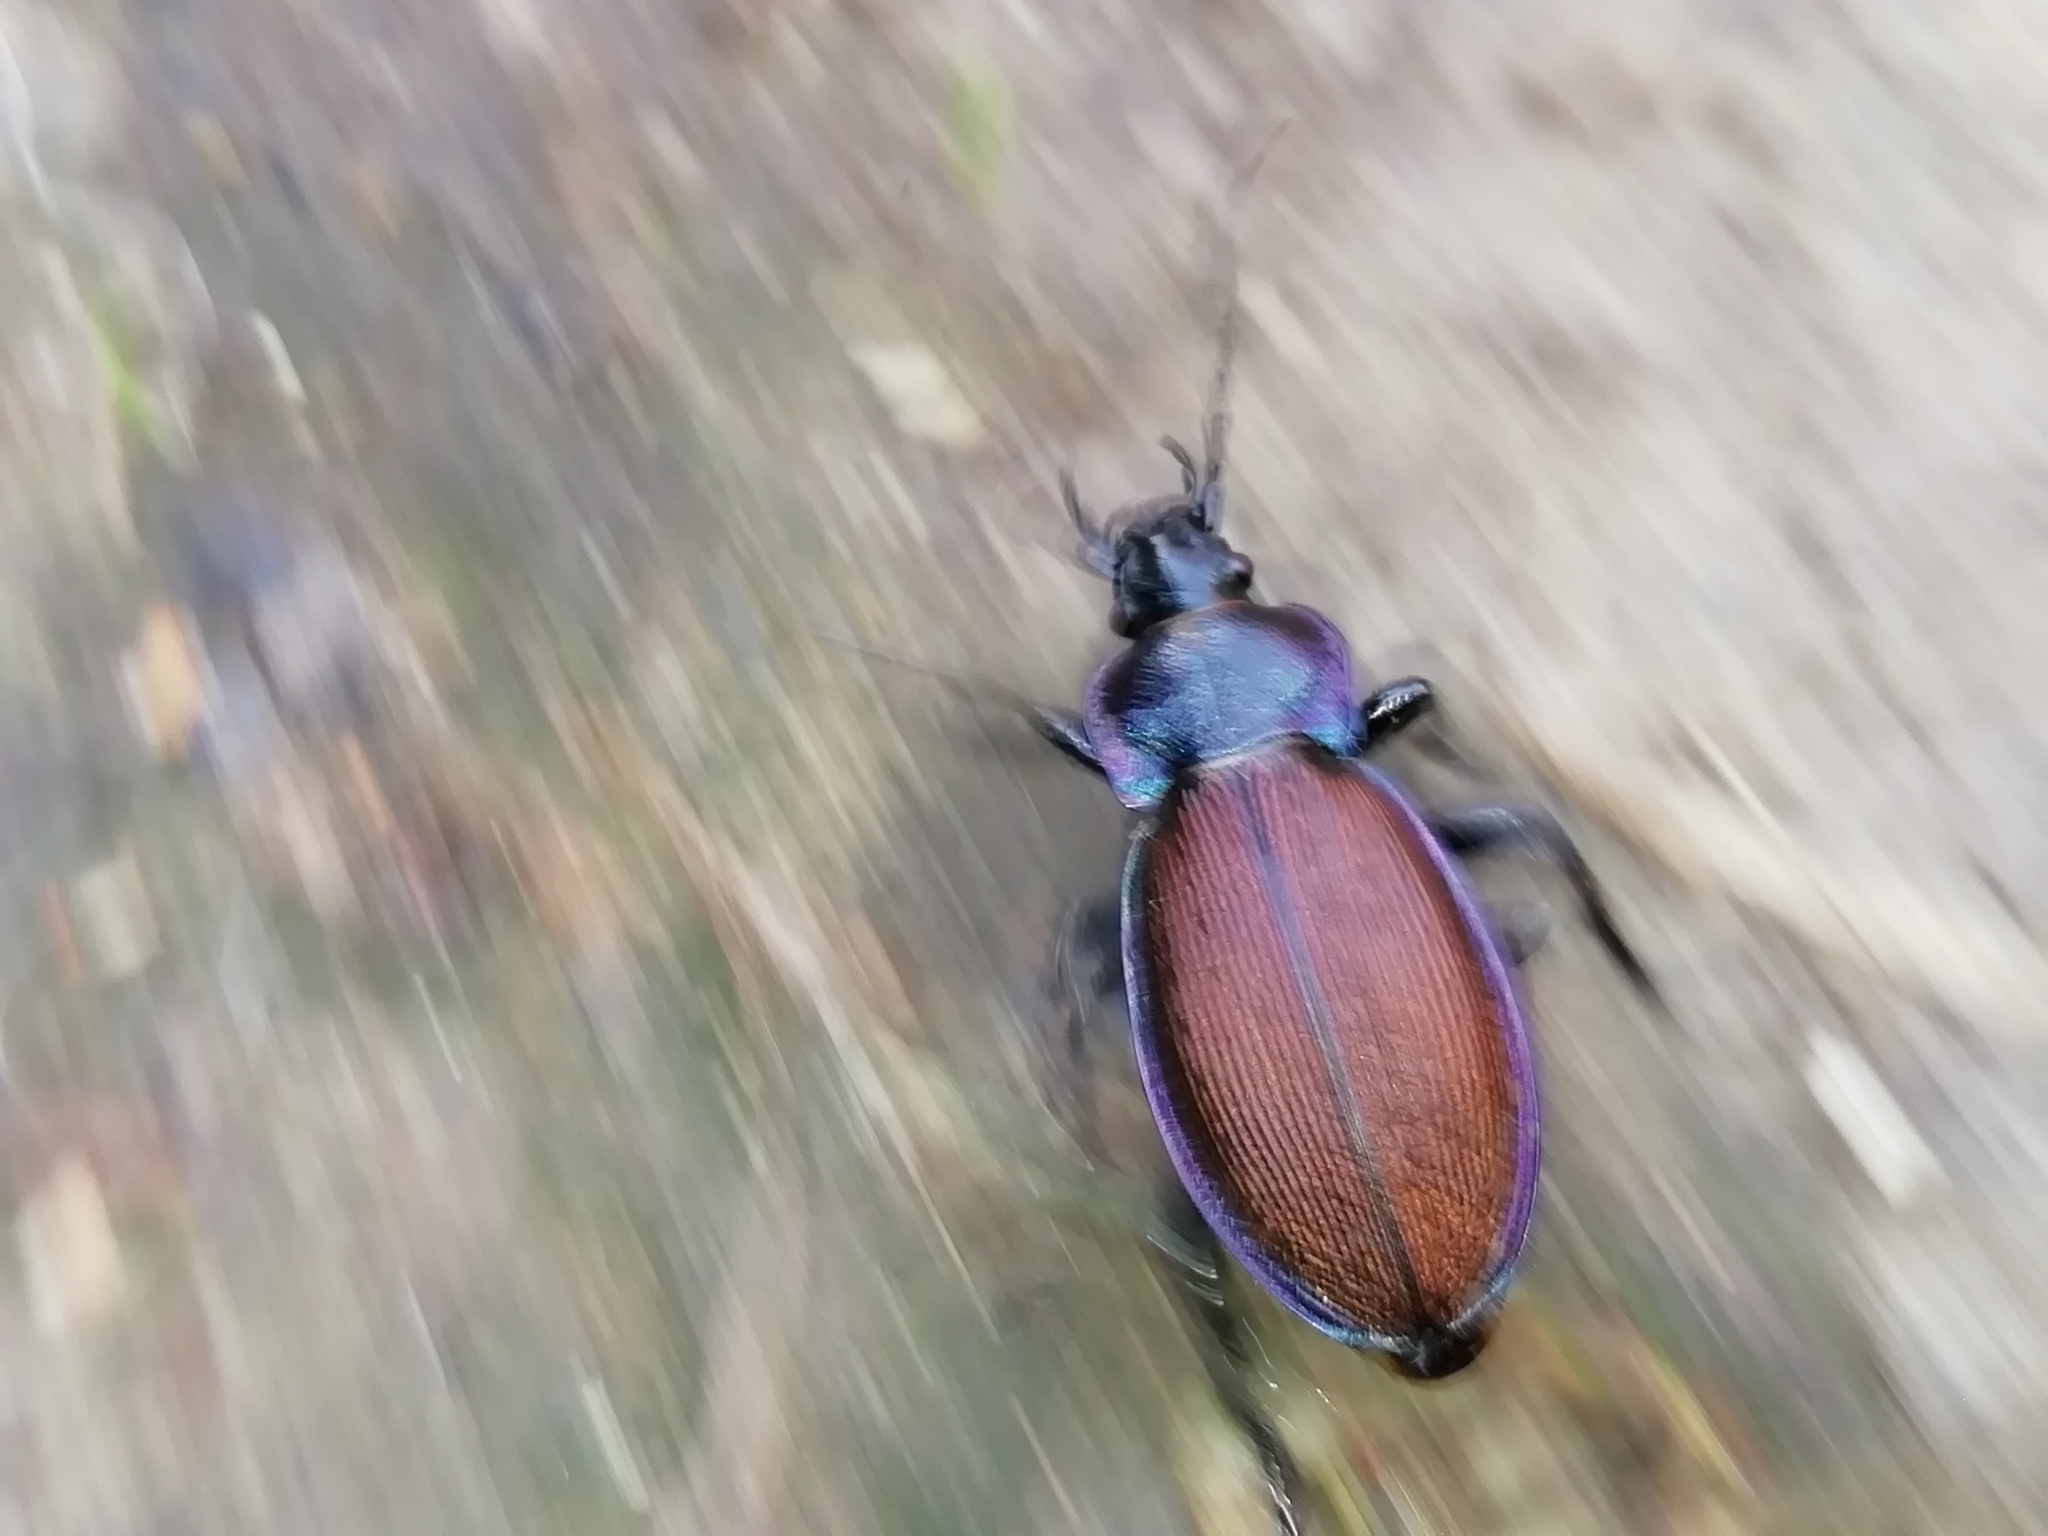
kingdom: Animalia
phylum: Arthropoda
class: Insecta
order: Coleoptera
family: Carabidae
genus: Carabus
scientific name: Carabus regalis
